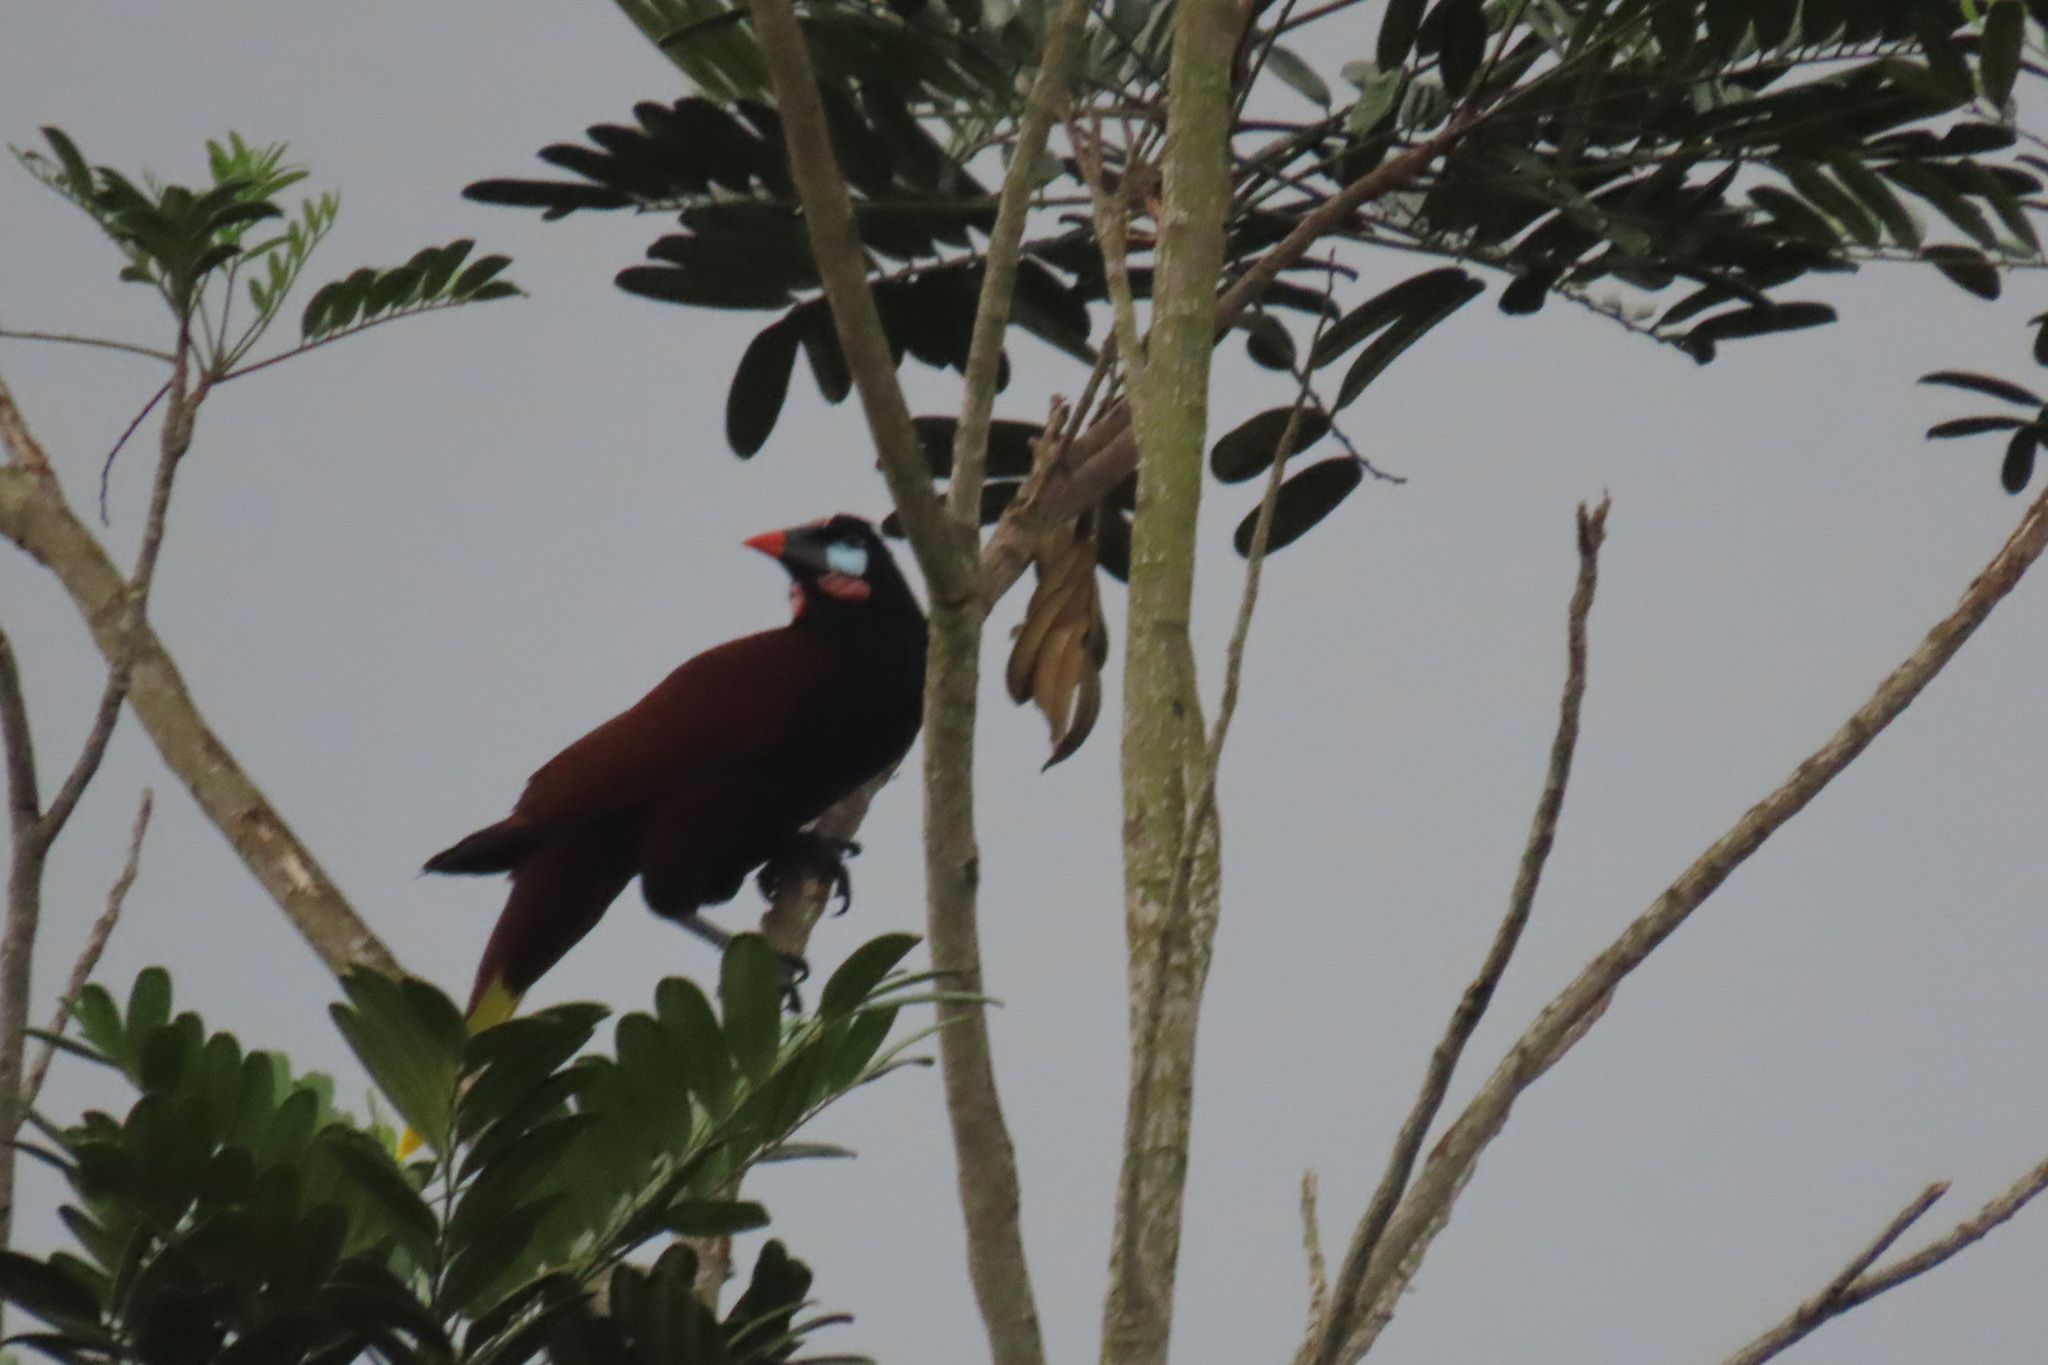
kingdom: Animalia
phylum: Chordata
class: Aves
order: Passeriformes
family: Icteridae
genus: Psarocolius
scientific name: Psarocolius montezuma
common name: Montezuma oropendola
